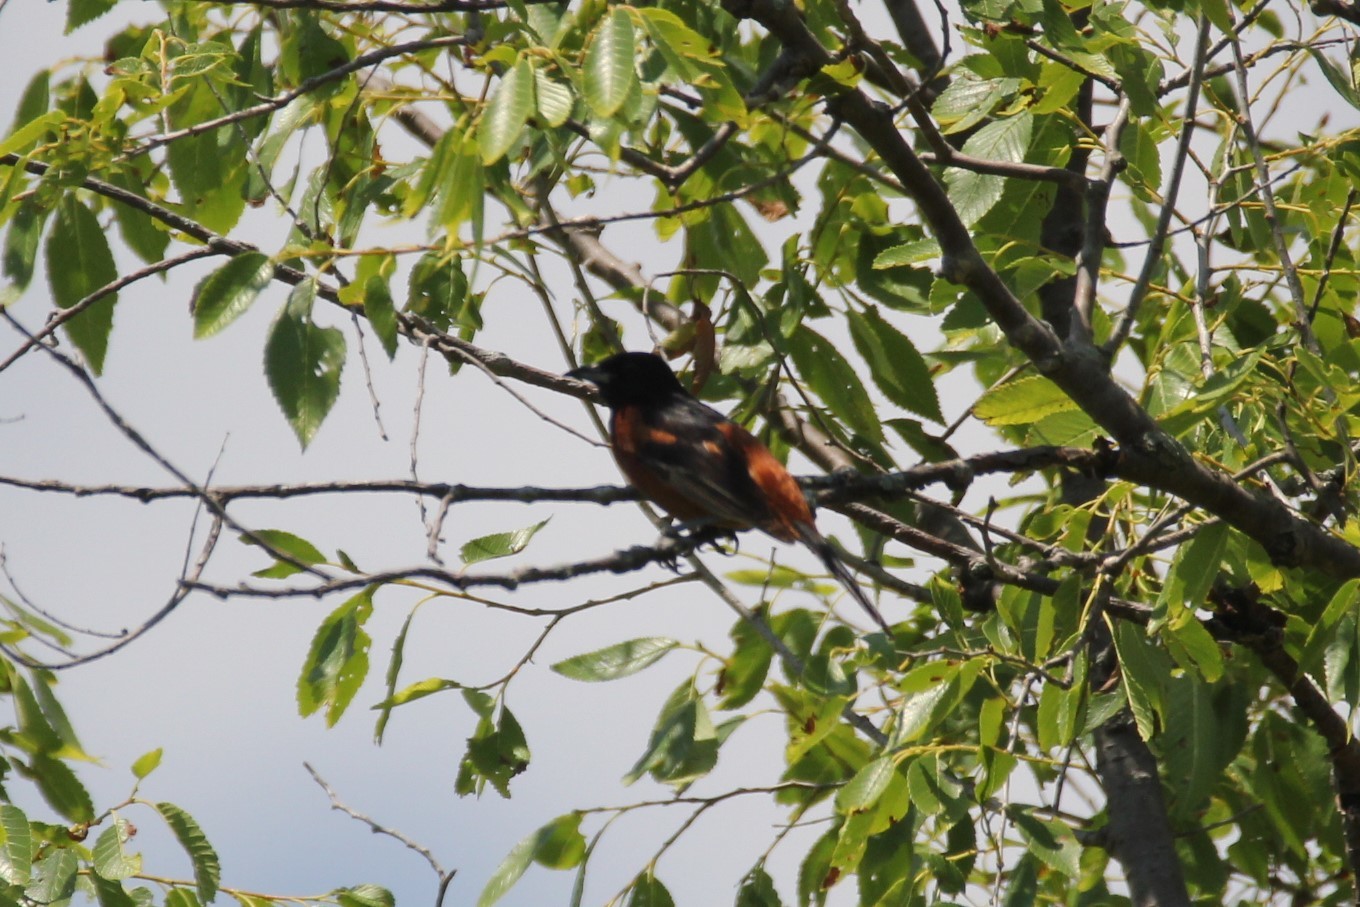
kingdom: Animalia
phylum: Chordata
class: Aves
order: Passeriformes
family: Icteridae
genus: Icterus
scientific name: Icterus spurius
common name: Orchard oriole
